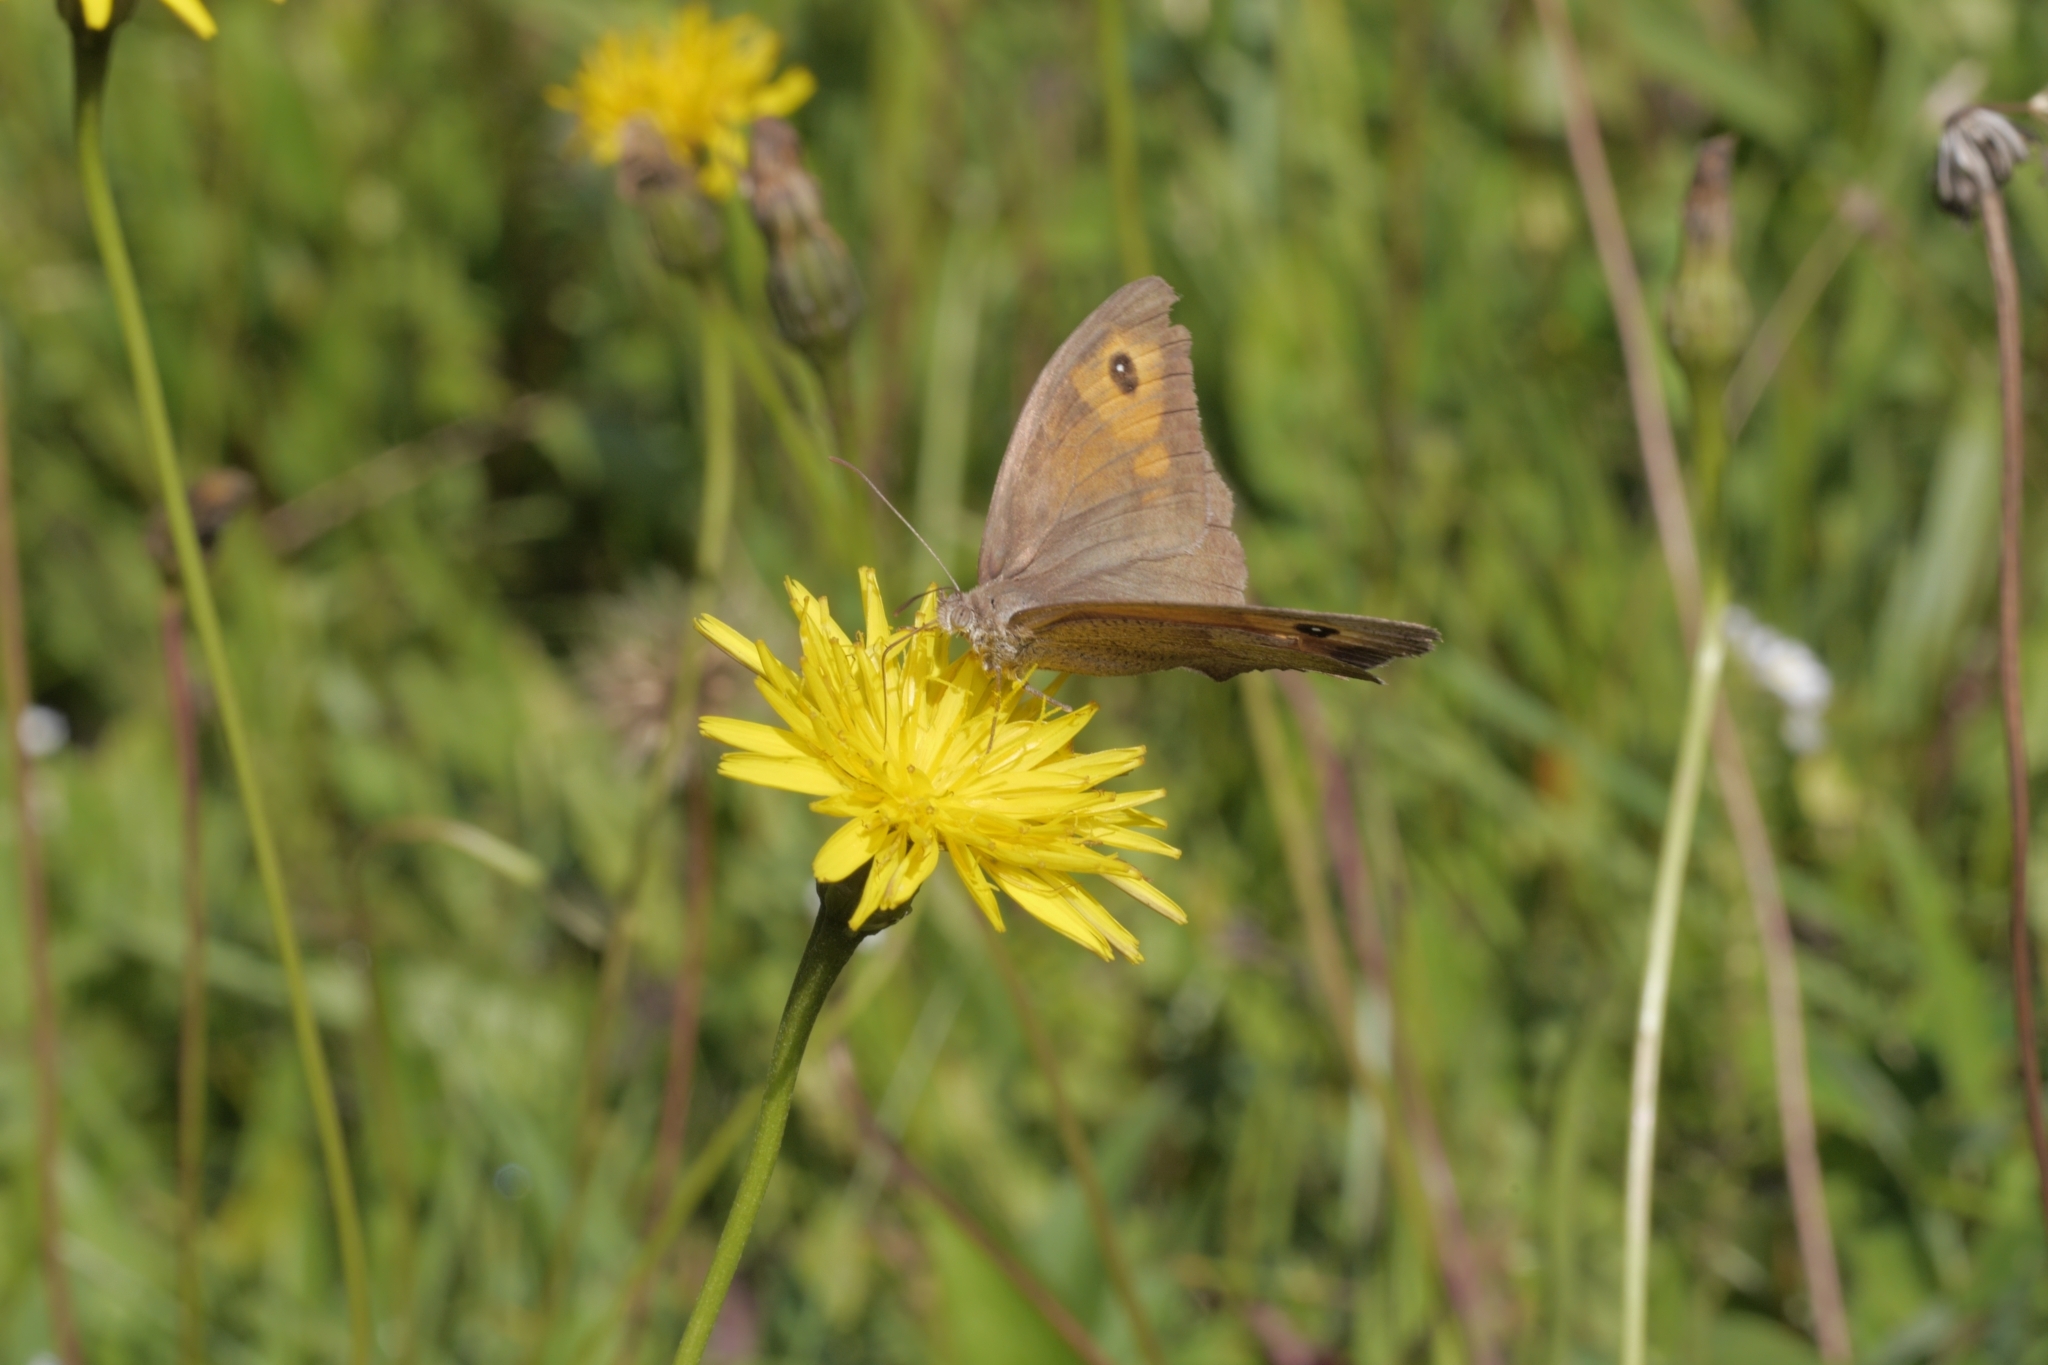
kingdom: Animalia
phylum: Arthropoda
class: Insecta
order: Lepidoptera
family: Nymphalidae
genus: Maniola
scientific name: Maniola jurtina
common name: Meadow brown
